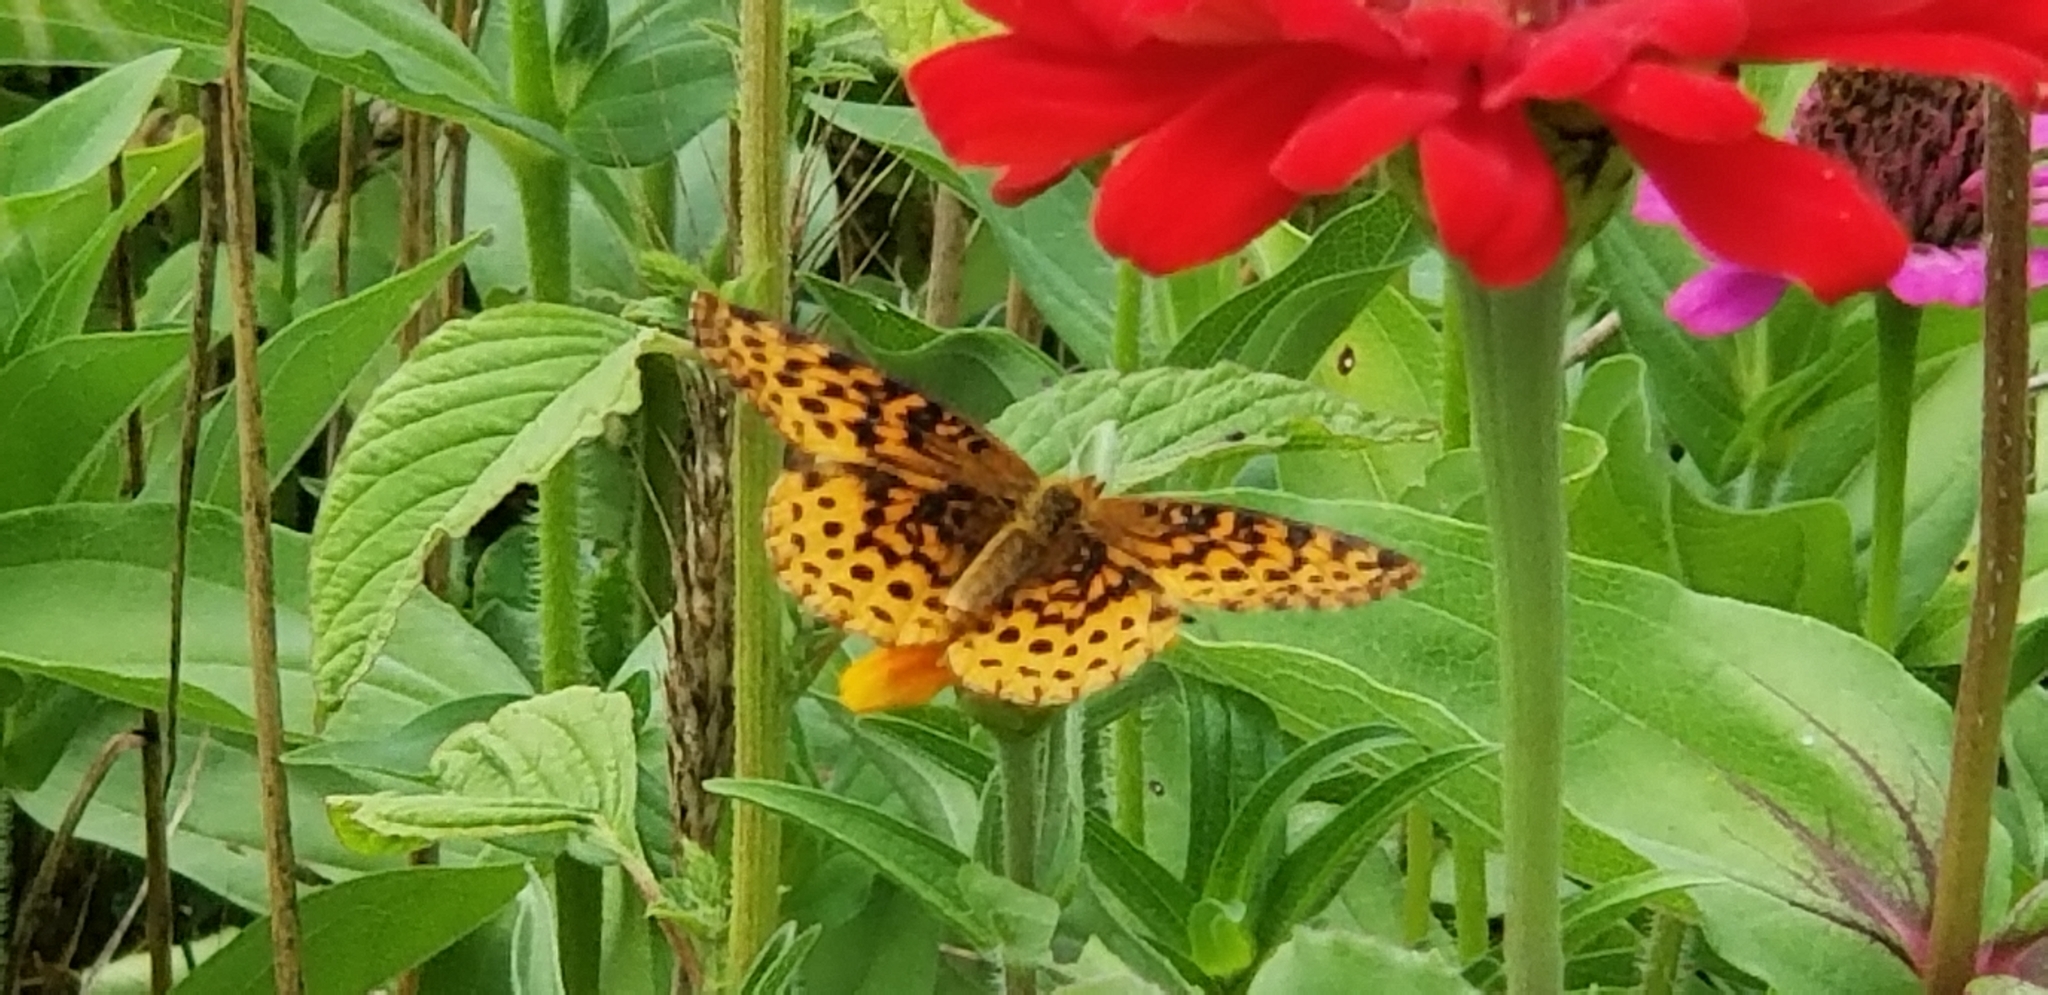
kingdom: Animalia
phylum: Arthropoda
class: Insecta
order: Lepidoptera
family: Nymphalidae
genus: Clossiana
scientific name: Clossiana toddi
